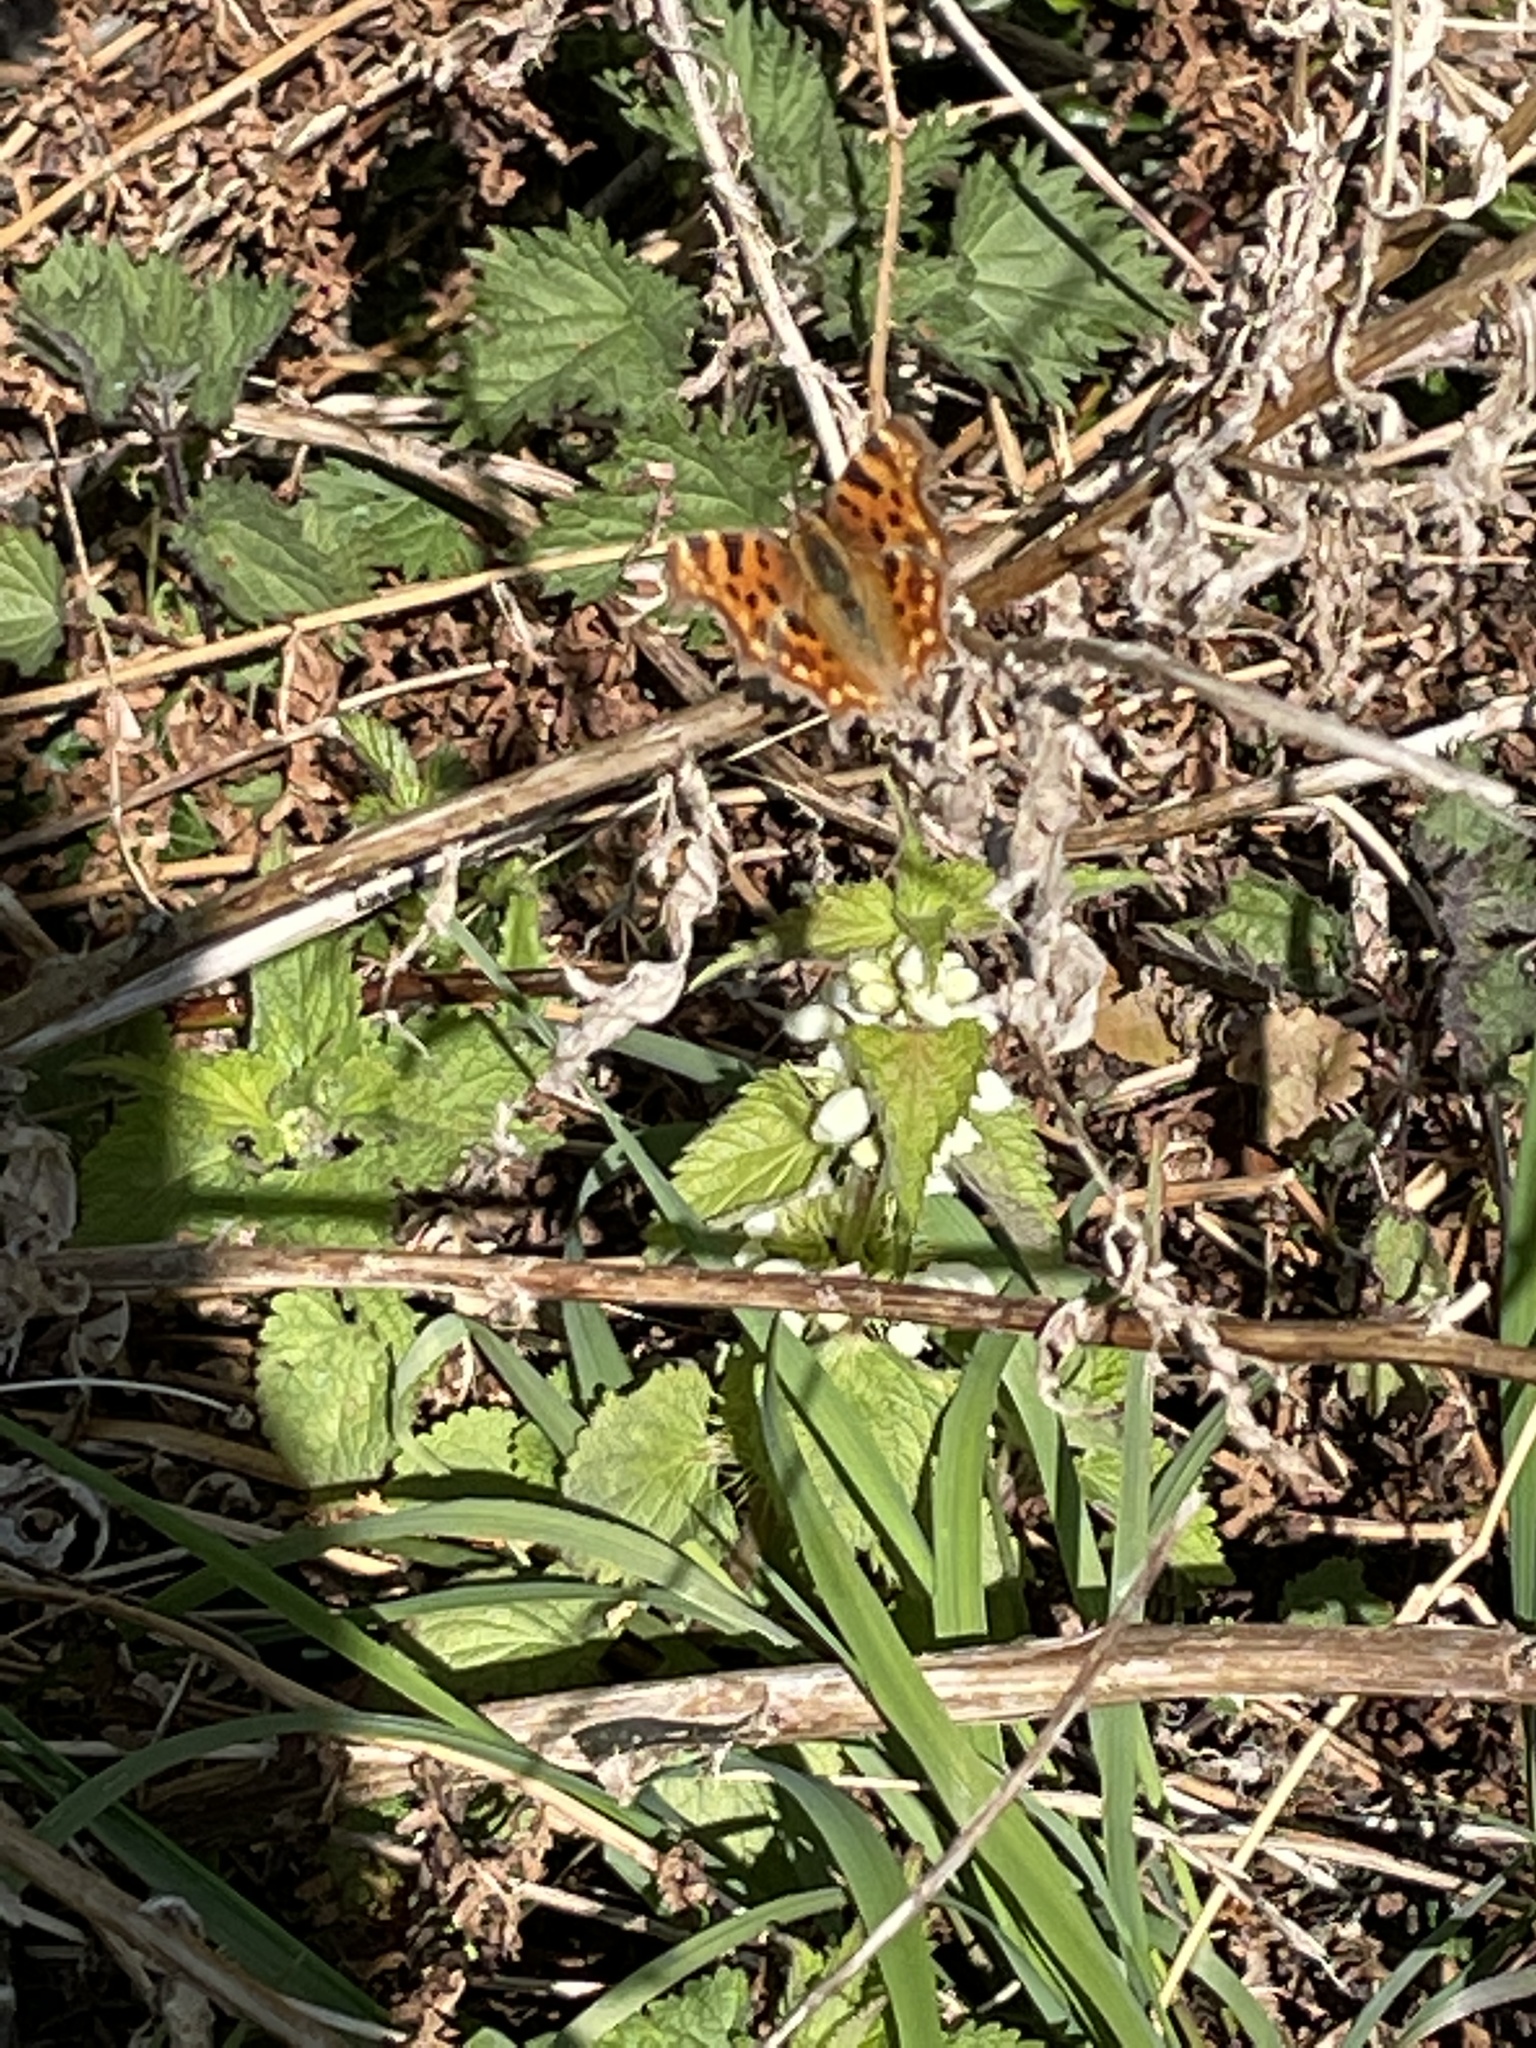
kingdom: Animalia
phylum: Arthropoda
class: Insecta
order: Lepidoptera
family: Nymphalidae
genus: Polygonia
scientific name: Polygonia c-album
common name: Comma
